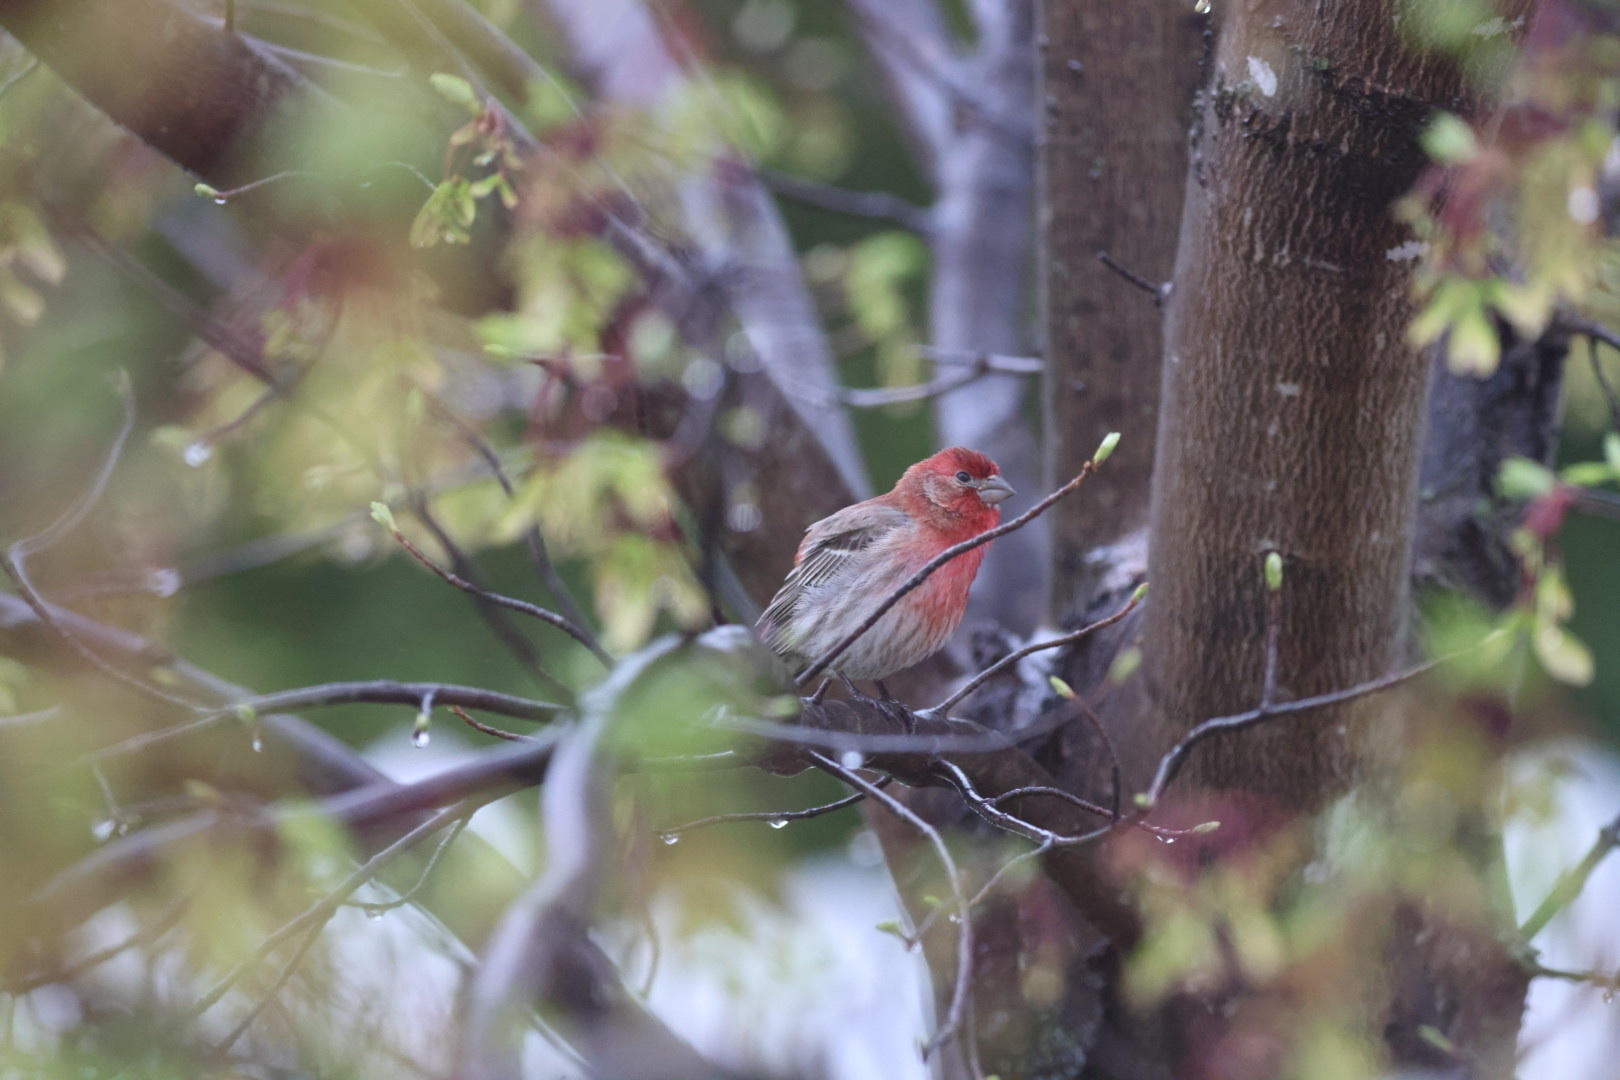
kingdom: Animalia
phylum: Chordata
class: Aves
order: Passeriformes
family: Fringillidae
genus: Haemorhous
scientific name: Haemorhous mexicanus
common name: House finch
